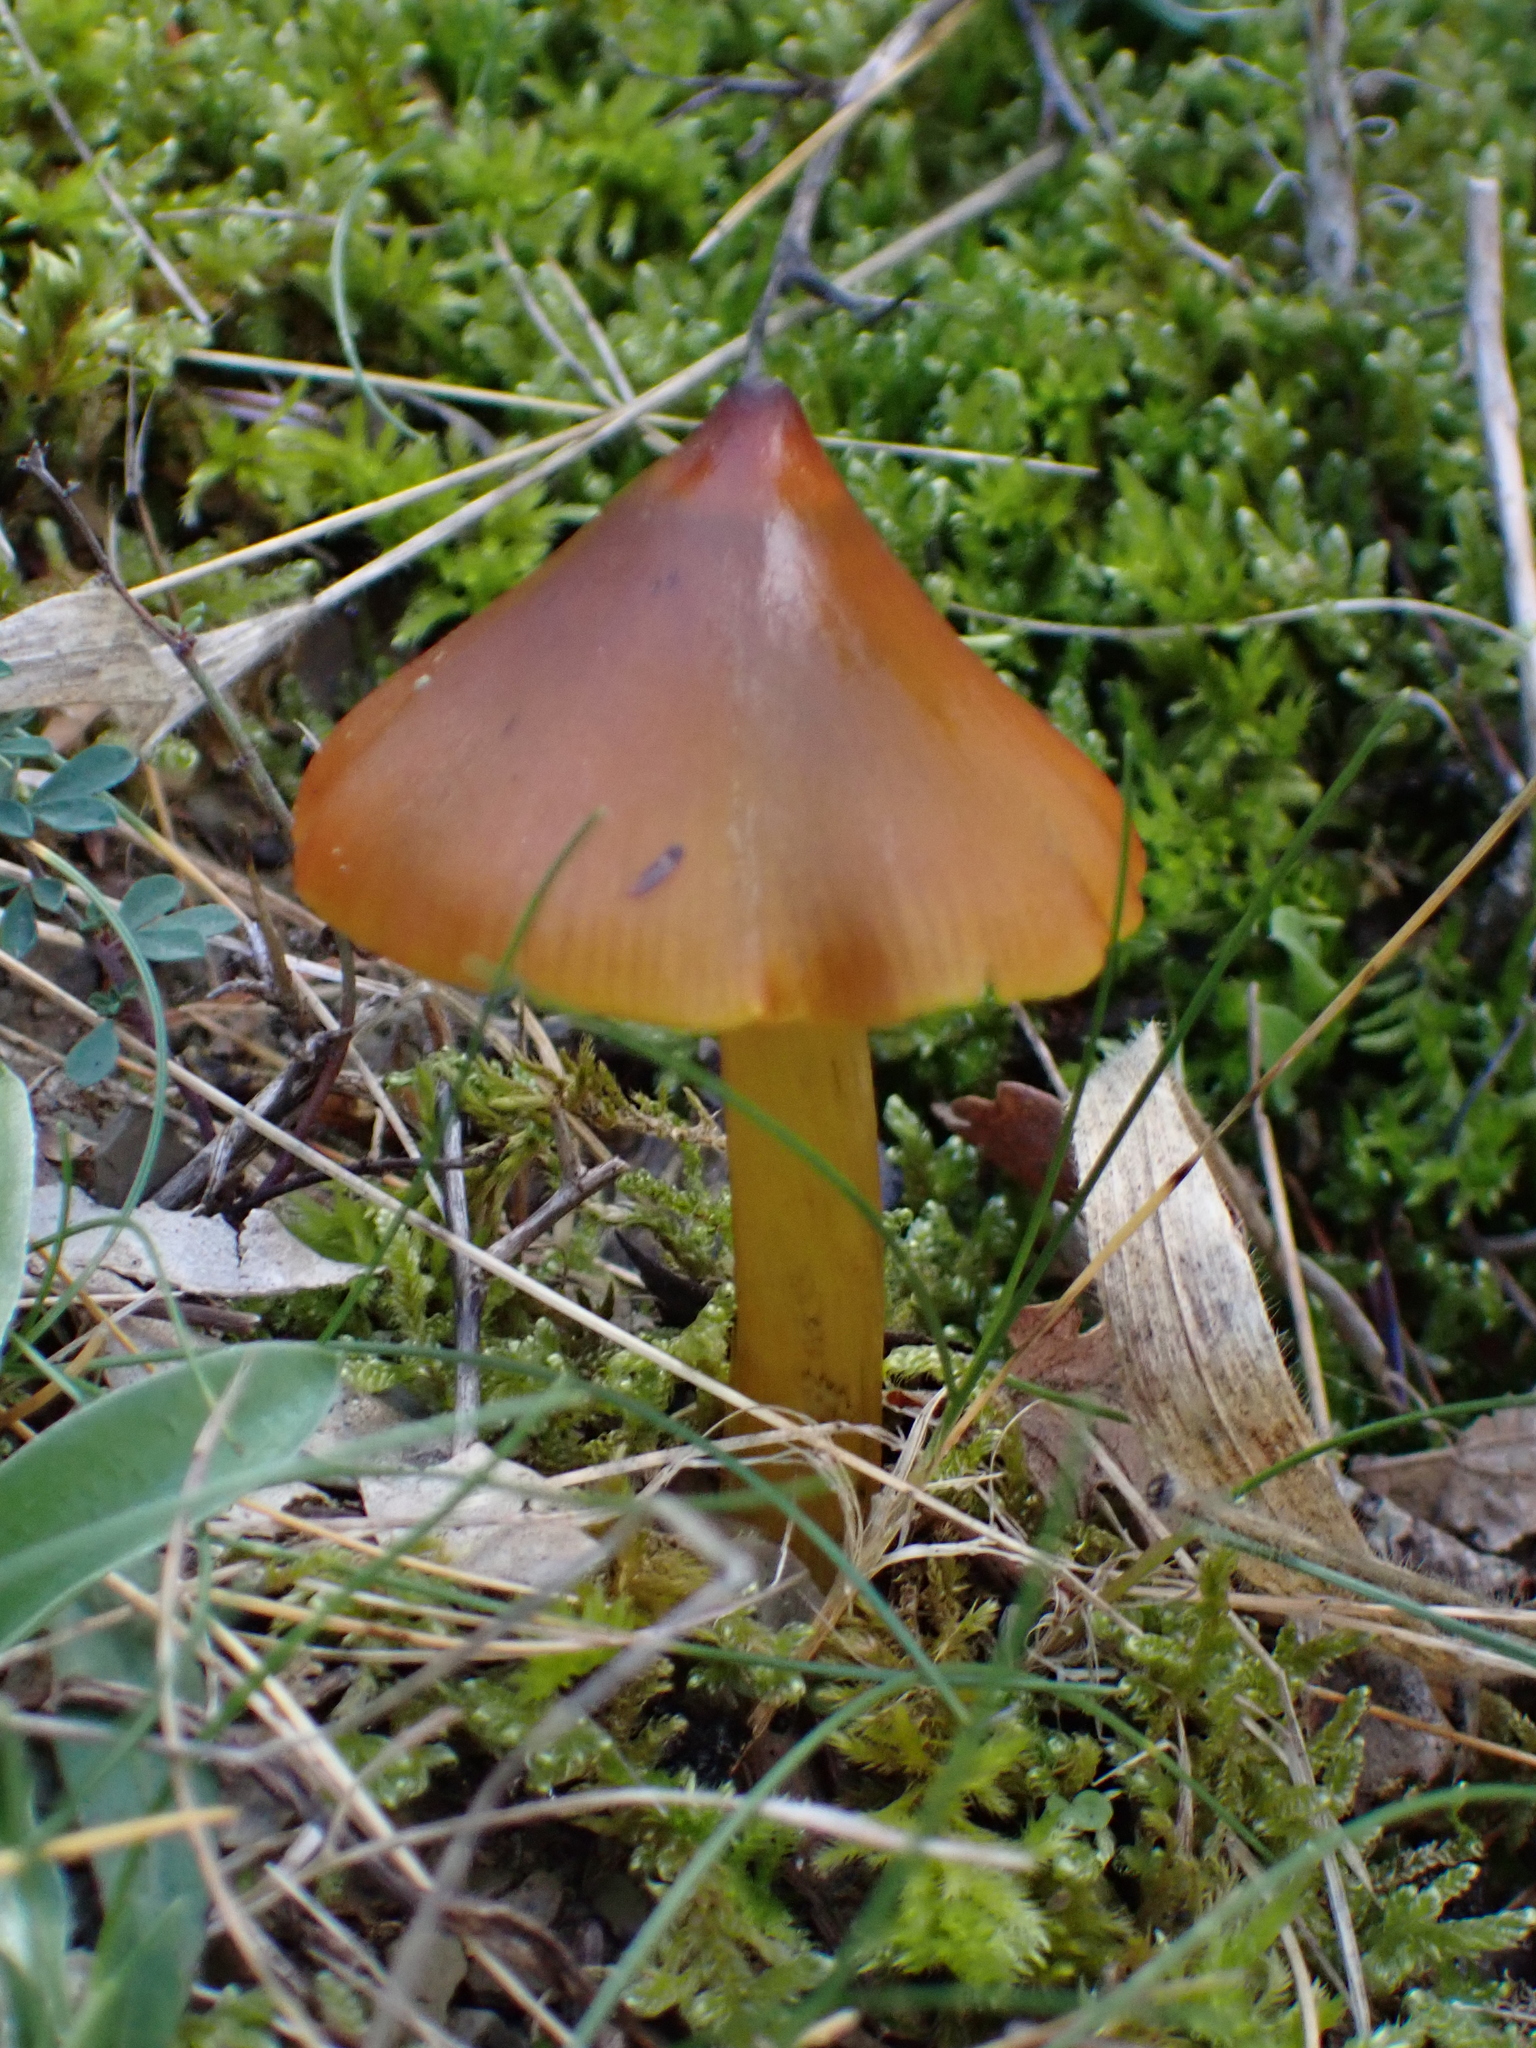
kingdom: Fungi
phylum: Basidiomycota
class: Agaricomycetes
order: Agaricales
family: Hygrophoraceae
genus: Hygrocybe
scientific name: Hygrocybe conica
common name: Blackening wax-cap
